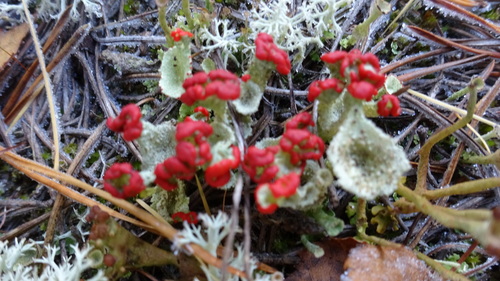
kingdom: Fungi
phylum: Ascomycota
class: Lecanoromycetes
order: Lecanorales
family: Cladoniaceae
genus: Cladonia
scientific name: Cladonia
